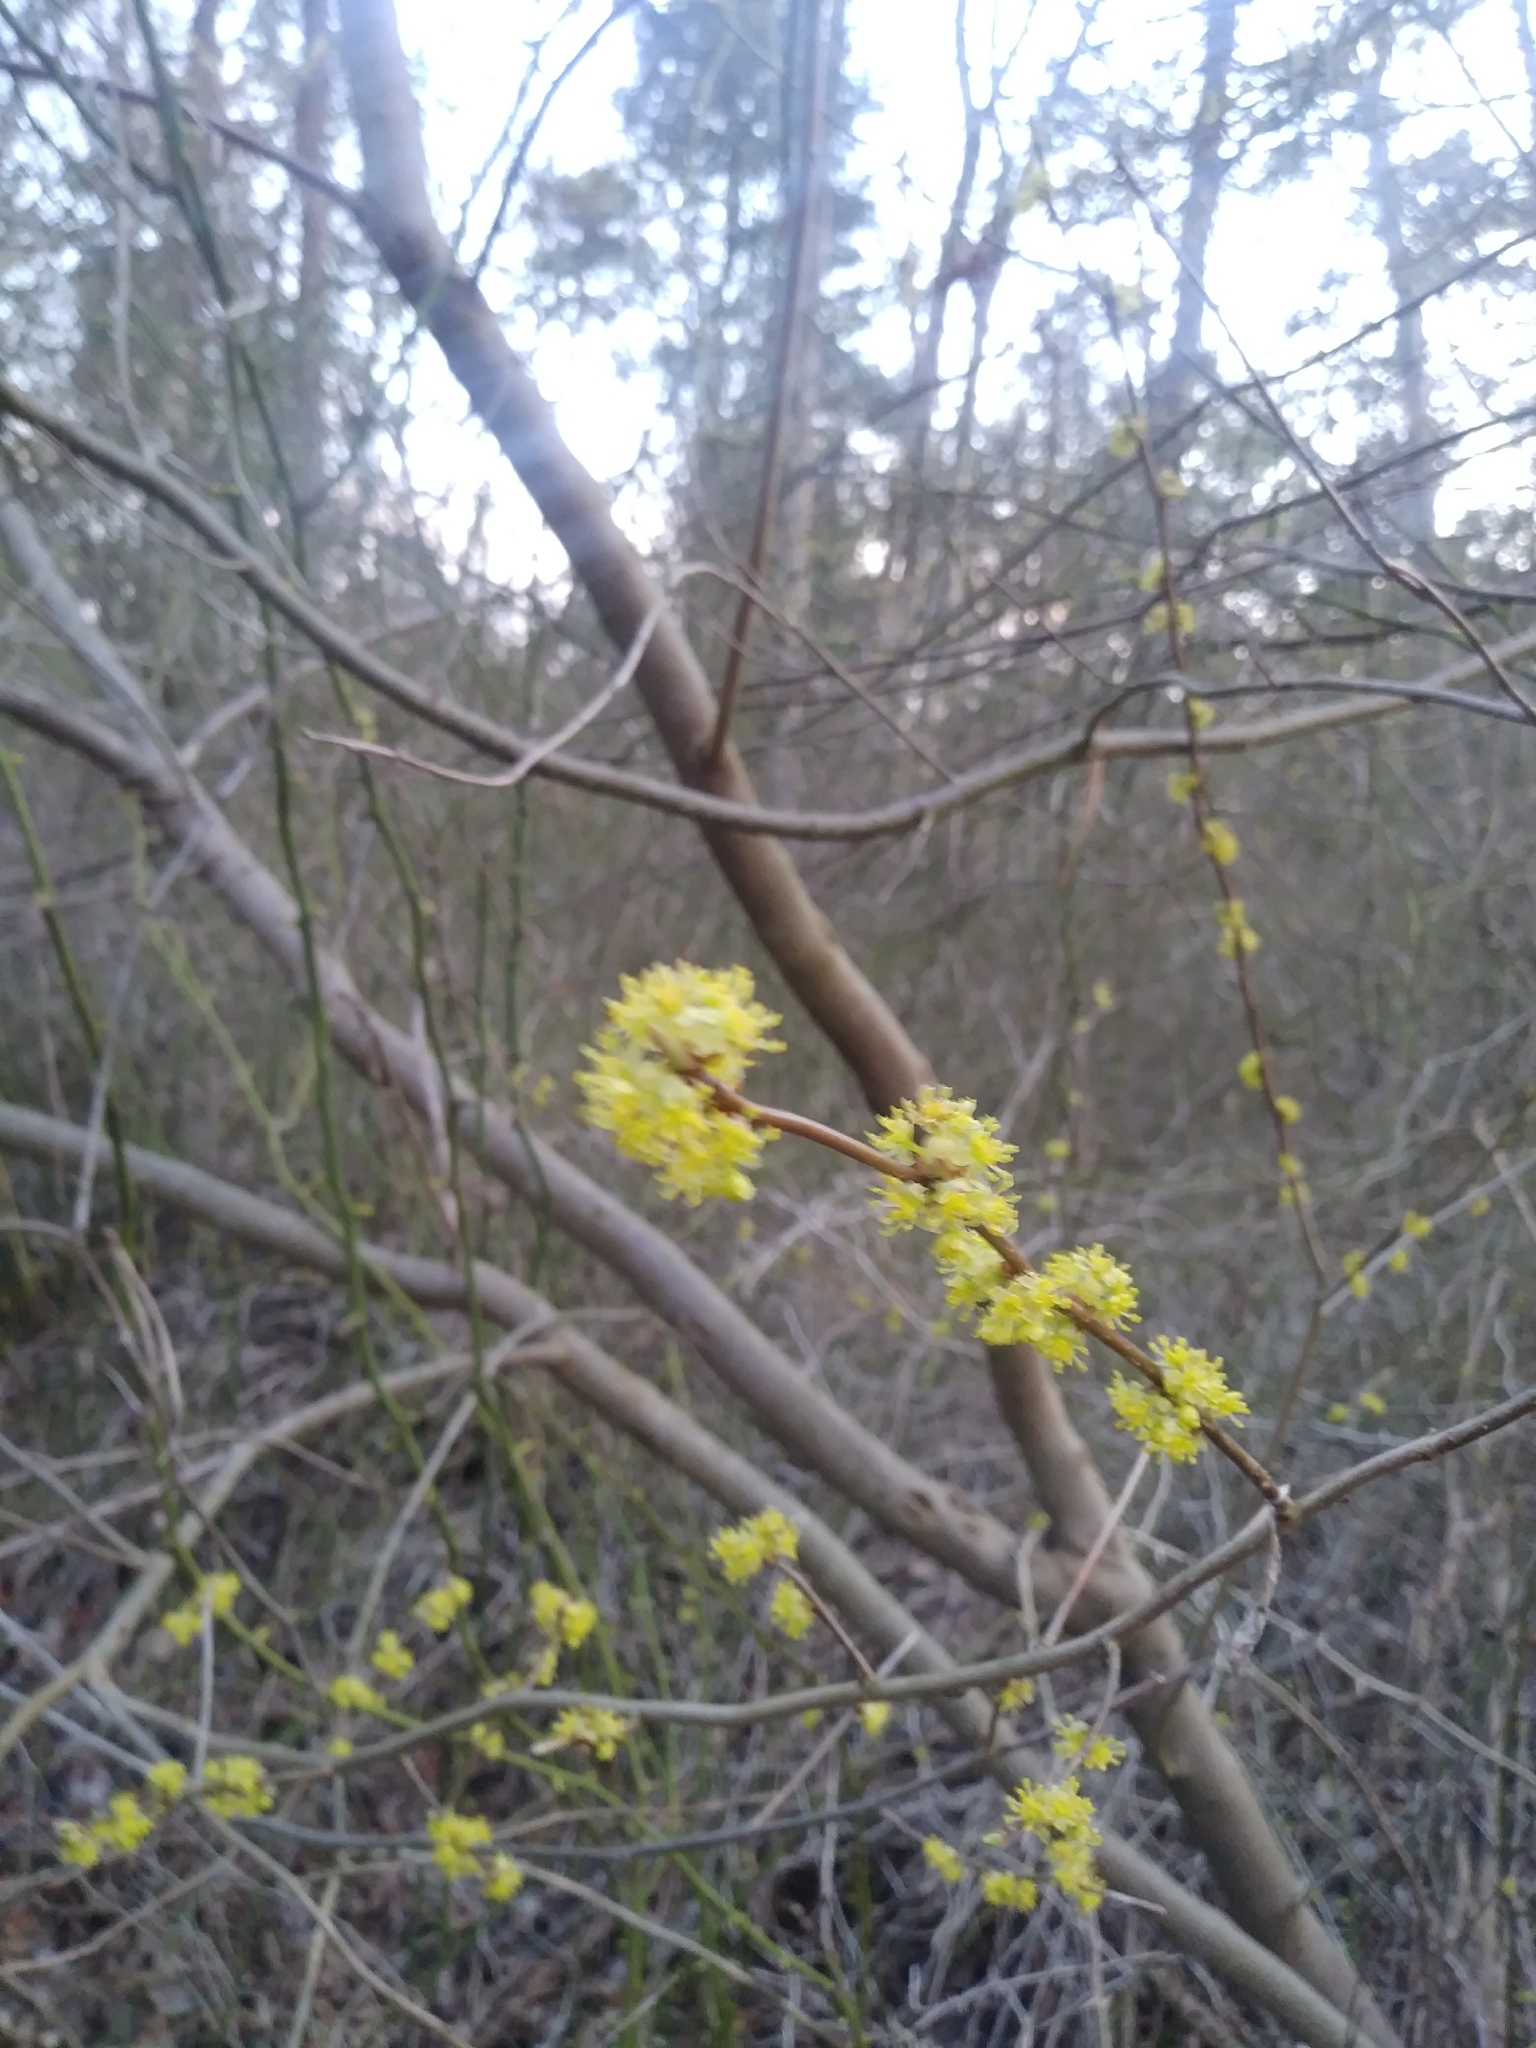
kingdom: Plantae
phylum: Tracheophyta
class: Magnoliopsida
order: Laurales
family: Lauraceae
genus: Lindera
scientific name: Lindera benzoin
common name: Spicebush
